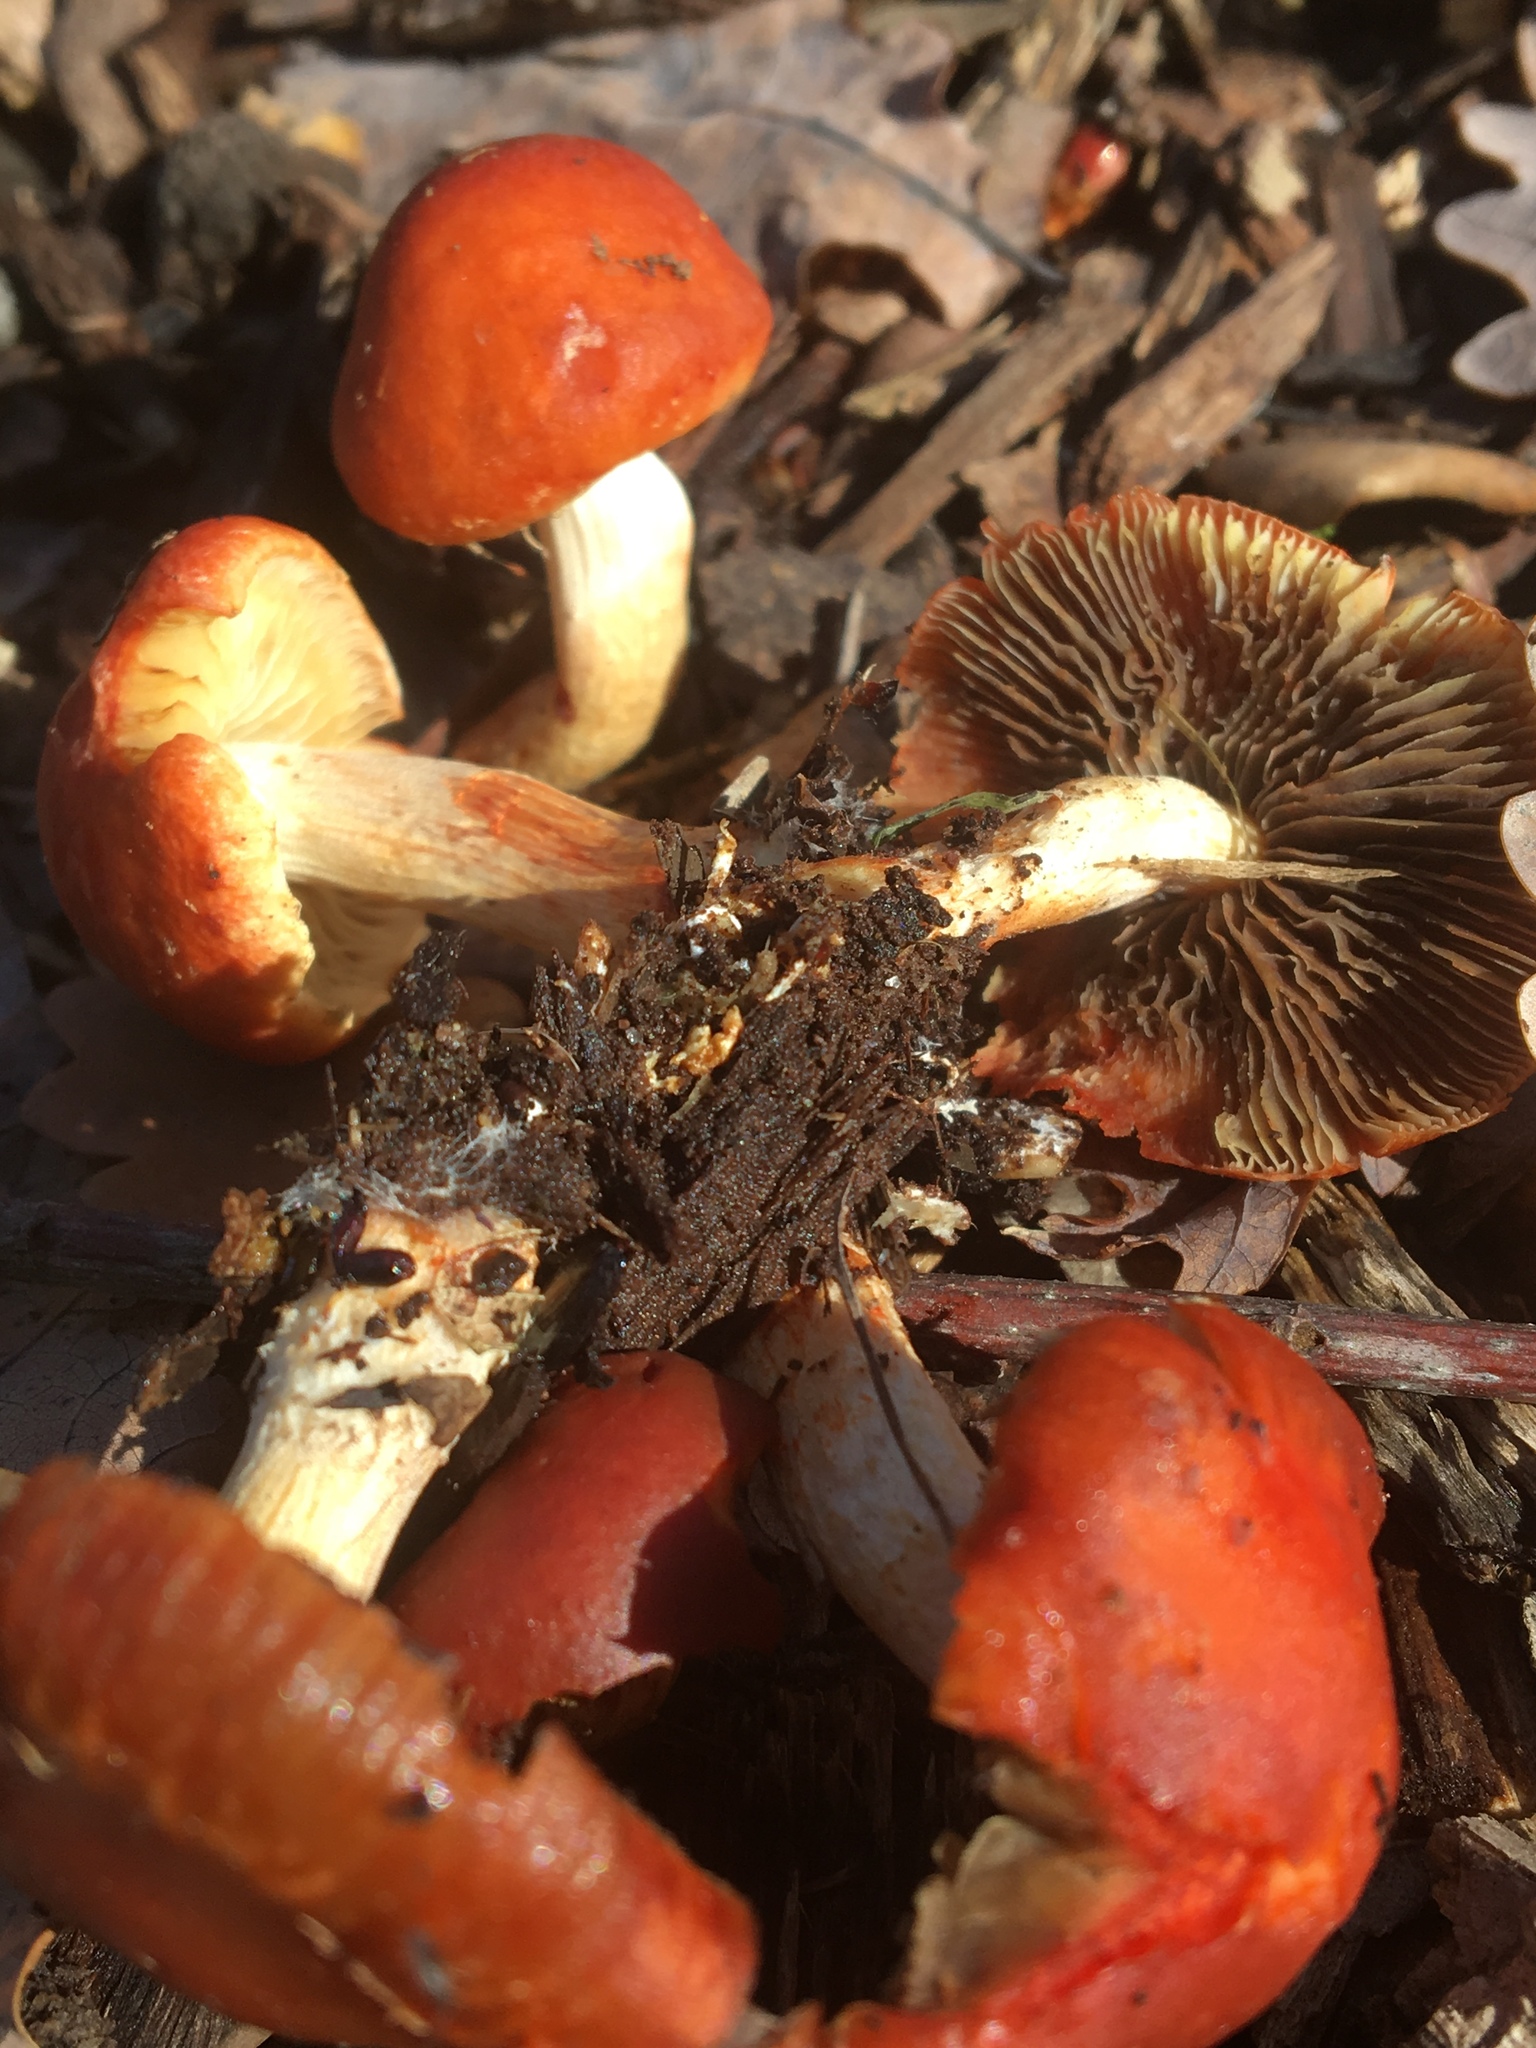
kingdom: Fungi
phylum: Basidiomycota
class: Agaricomycetes
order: Agaricales
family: Strophariaceae
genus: Leratiomyces
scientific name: Leratiomyces ceres
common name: Redlead roundhead
